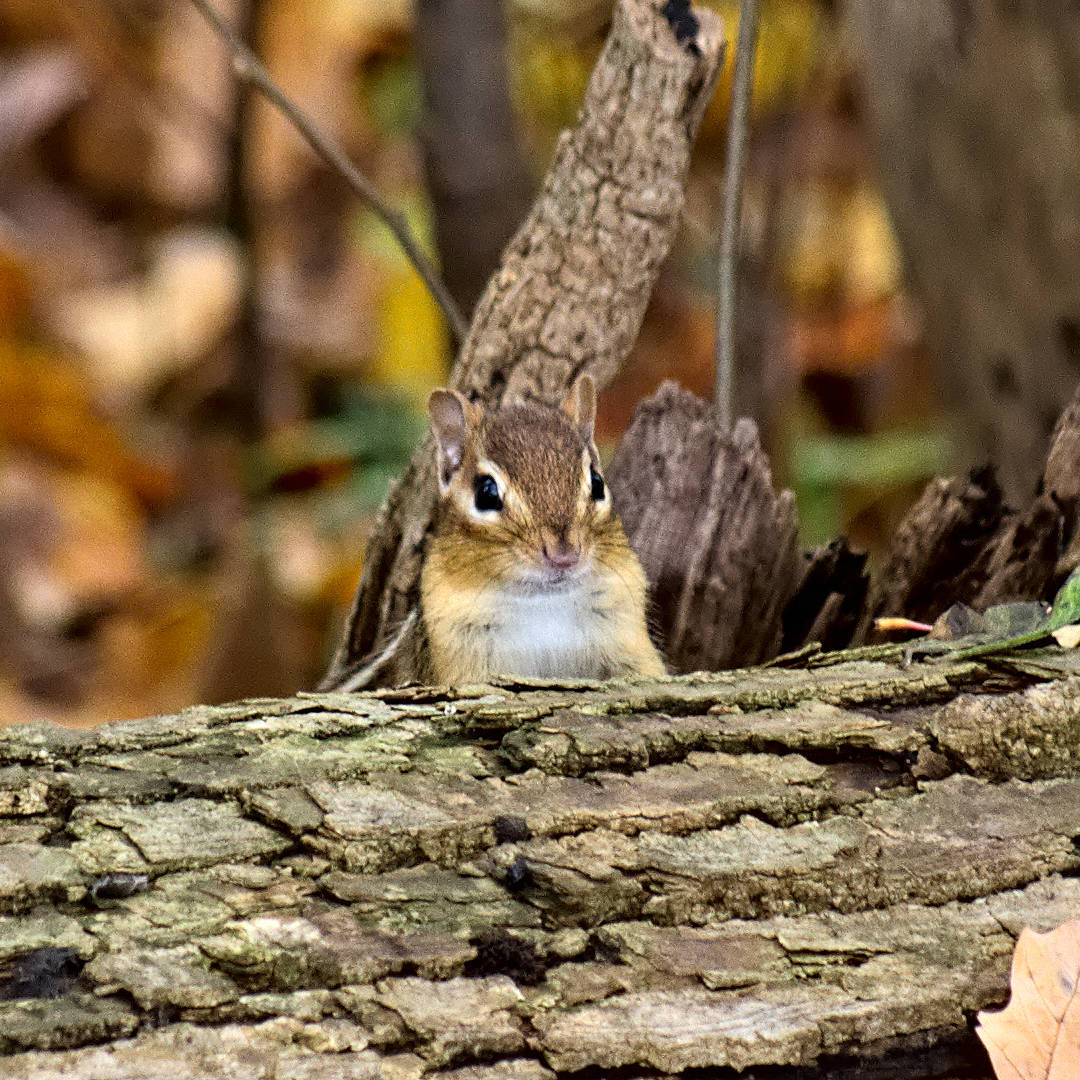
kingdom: Animalia
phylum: Chordata
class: Mammalia
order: Rodentia
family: Sciuridae
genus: Tamias
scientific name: Tamias striatus
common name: Eastern chipmunk
